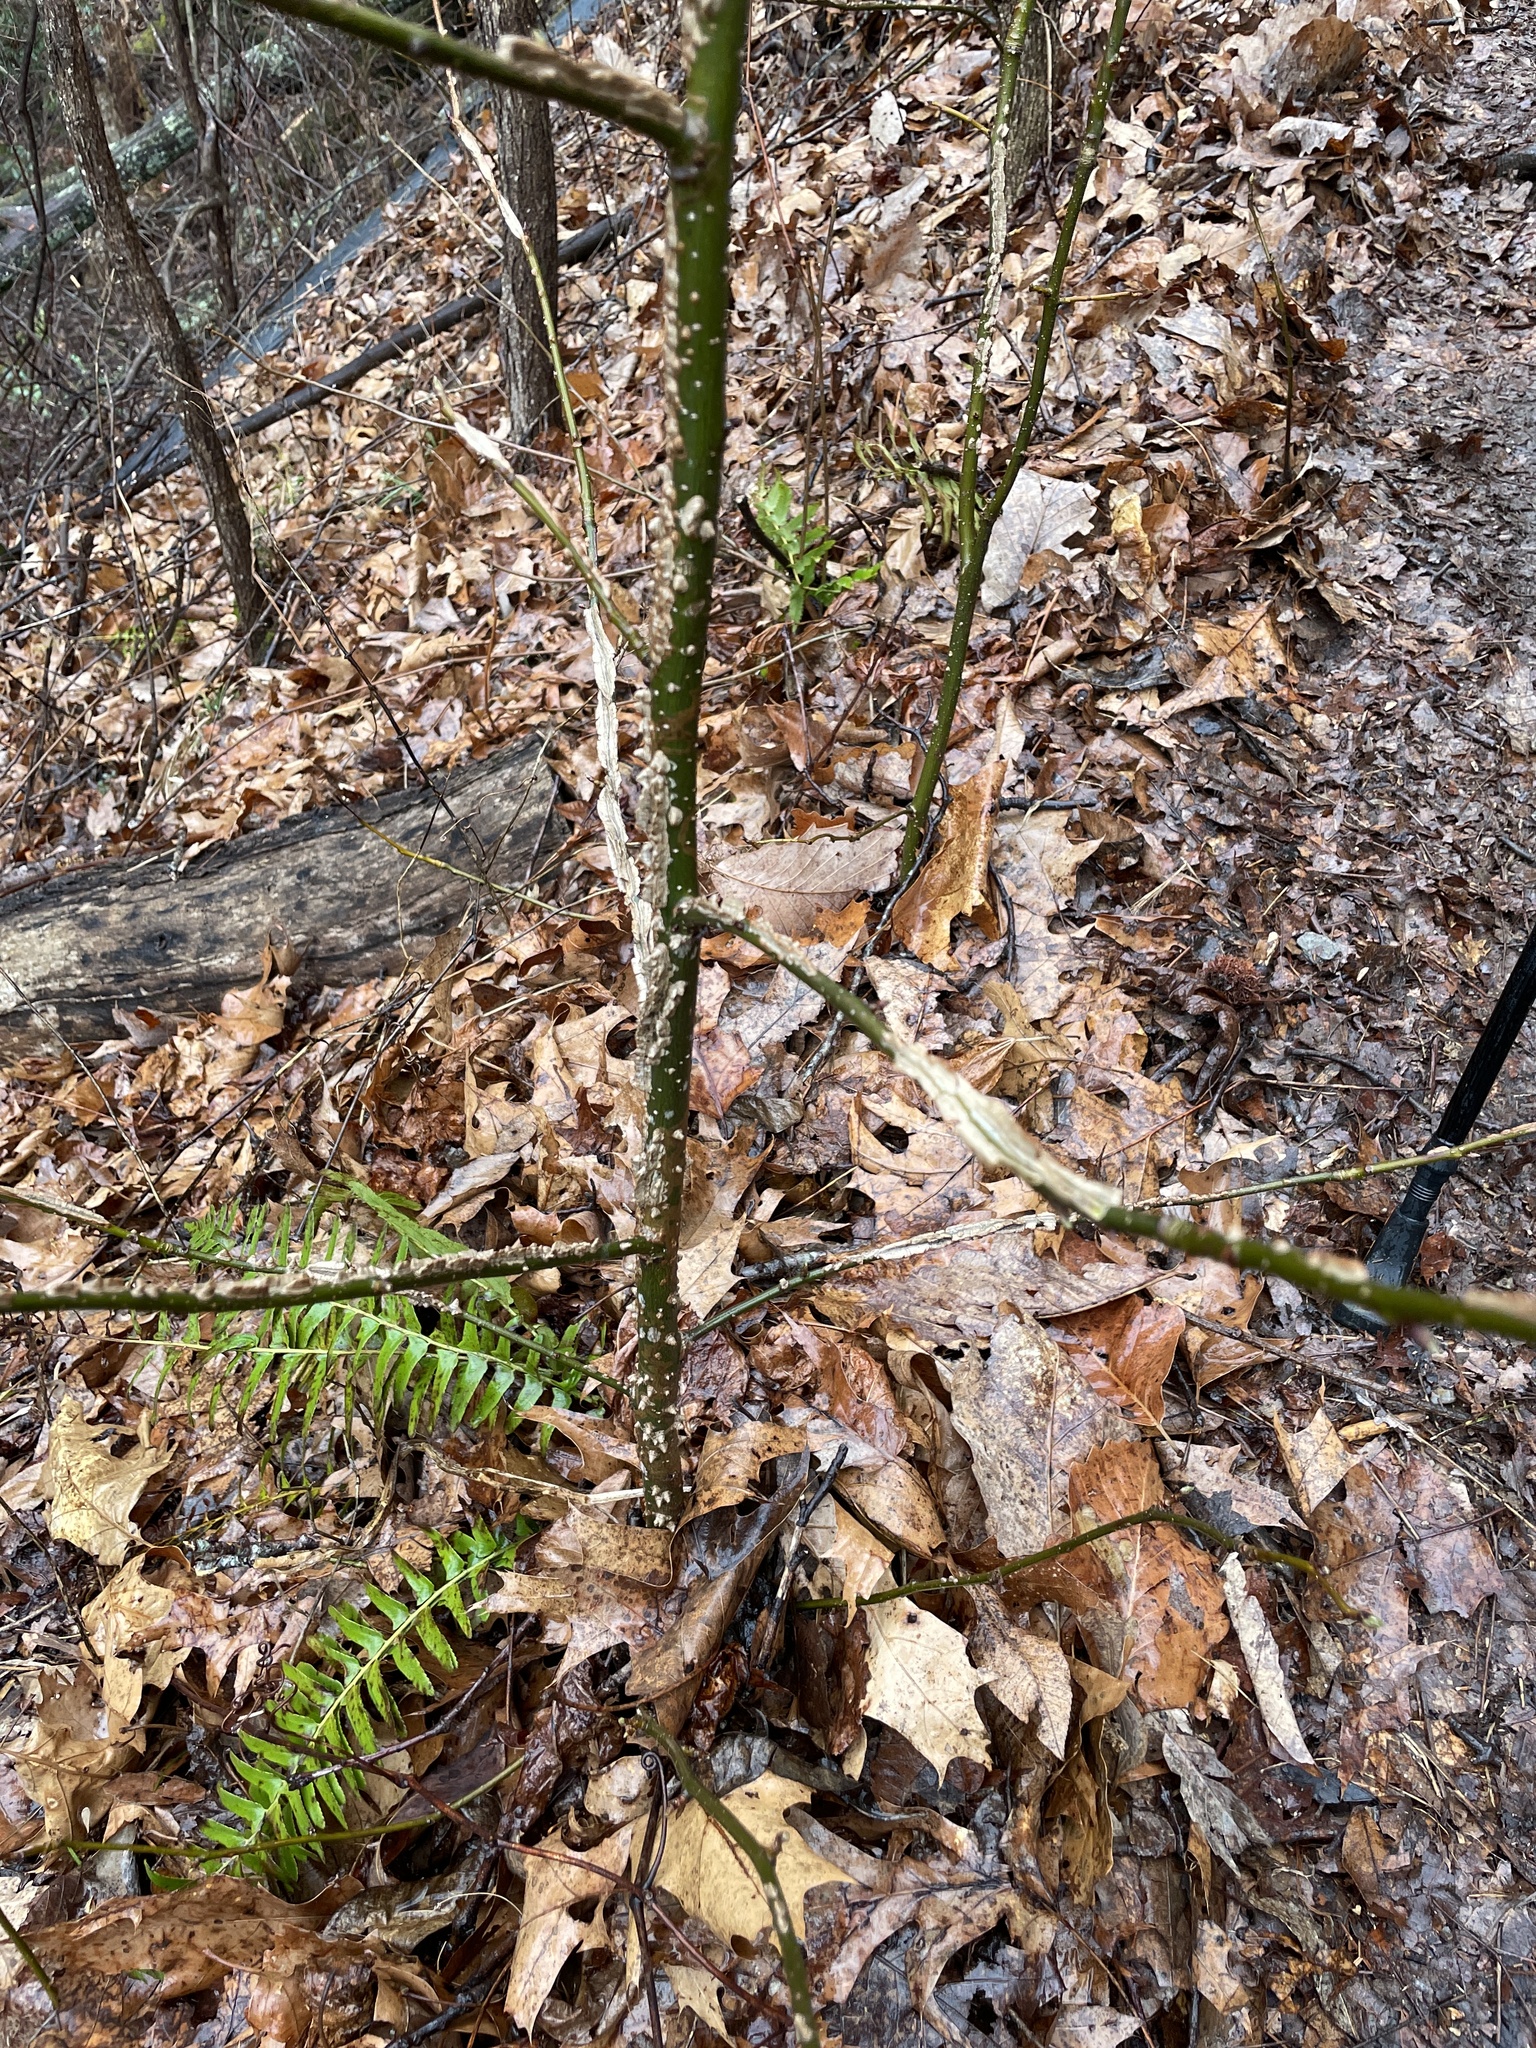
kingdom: Plantae
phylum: Tracheophyta
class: Magnoliopsida
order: Saxifragales
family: Altingiaceae
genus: Liquidambar
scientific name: Liquidambar styraciflua
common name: Sweet gum
